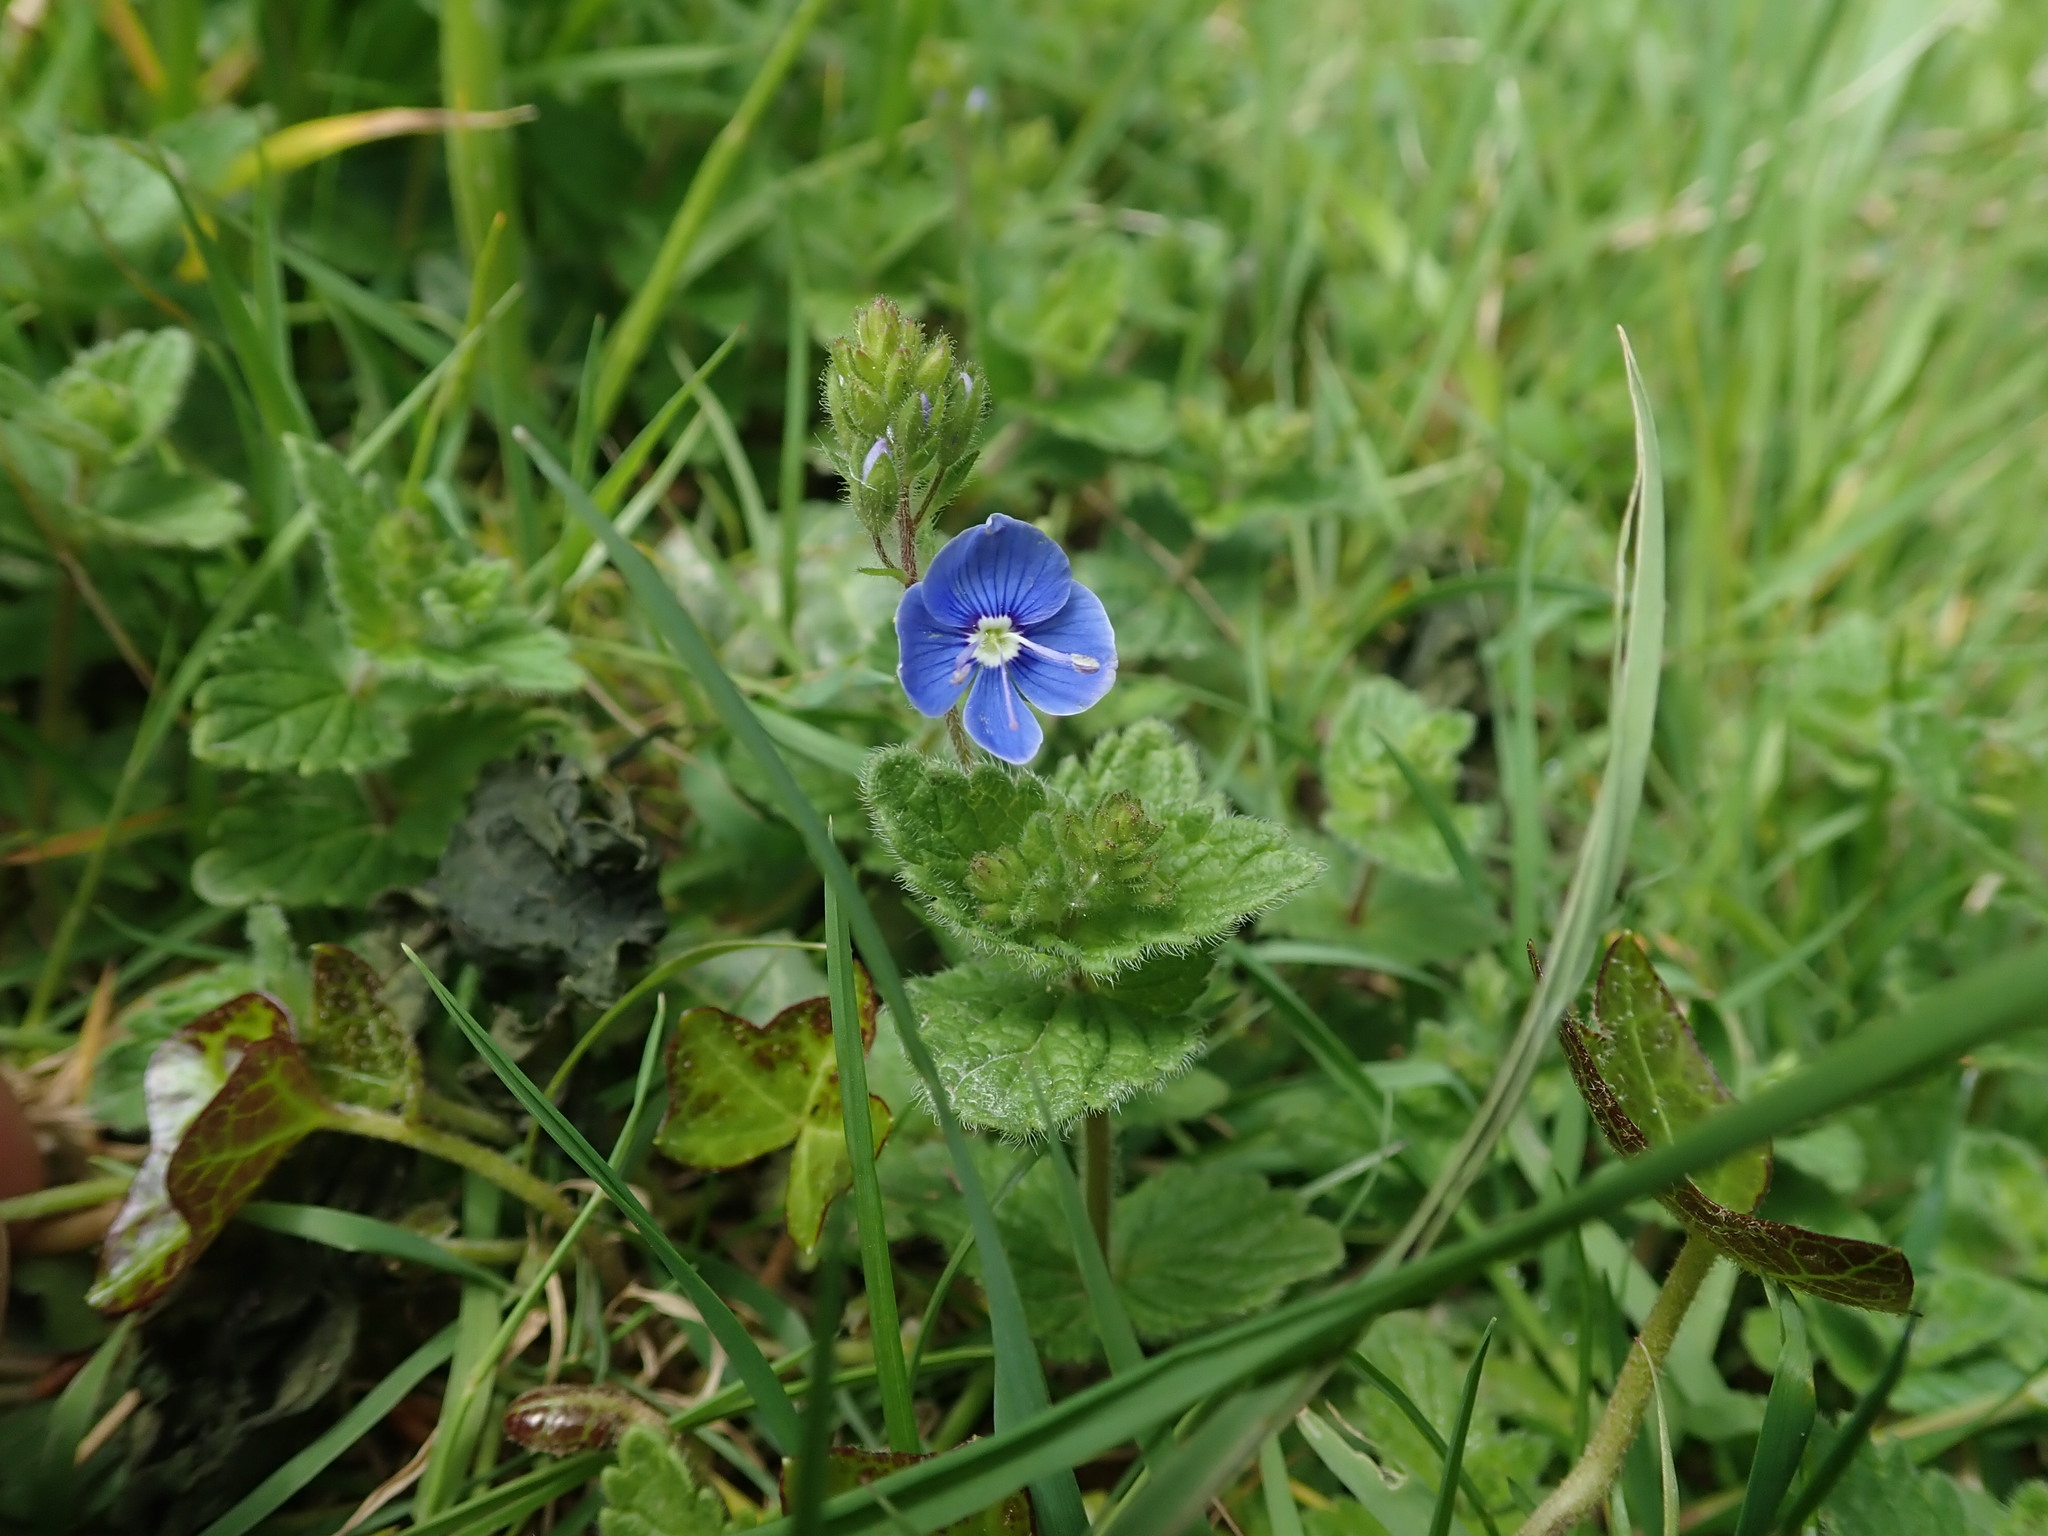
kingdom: Plantae
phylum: Tracheophyta
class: Magnoliopsida
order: Lamiales
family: Plantaginaceae
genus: Veronica
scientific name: Veronica chamaedrys
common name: Germander speedwell
